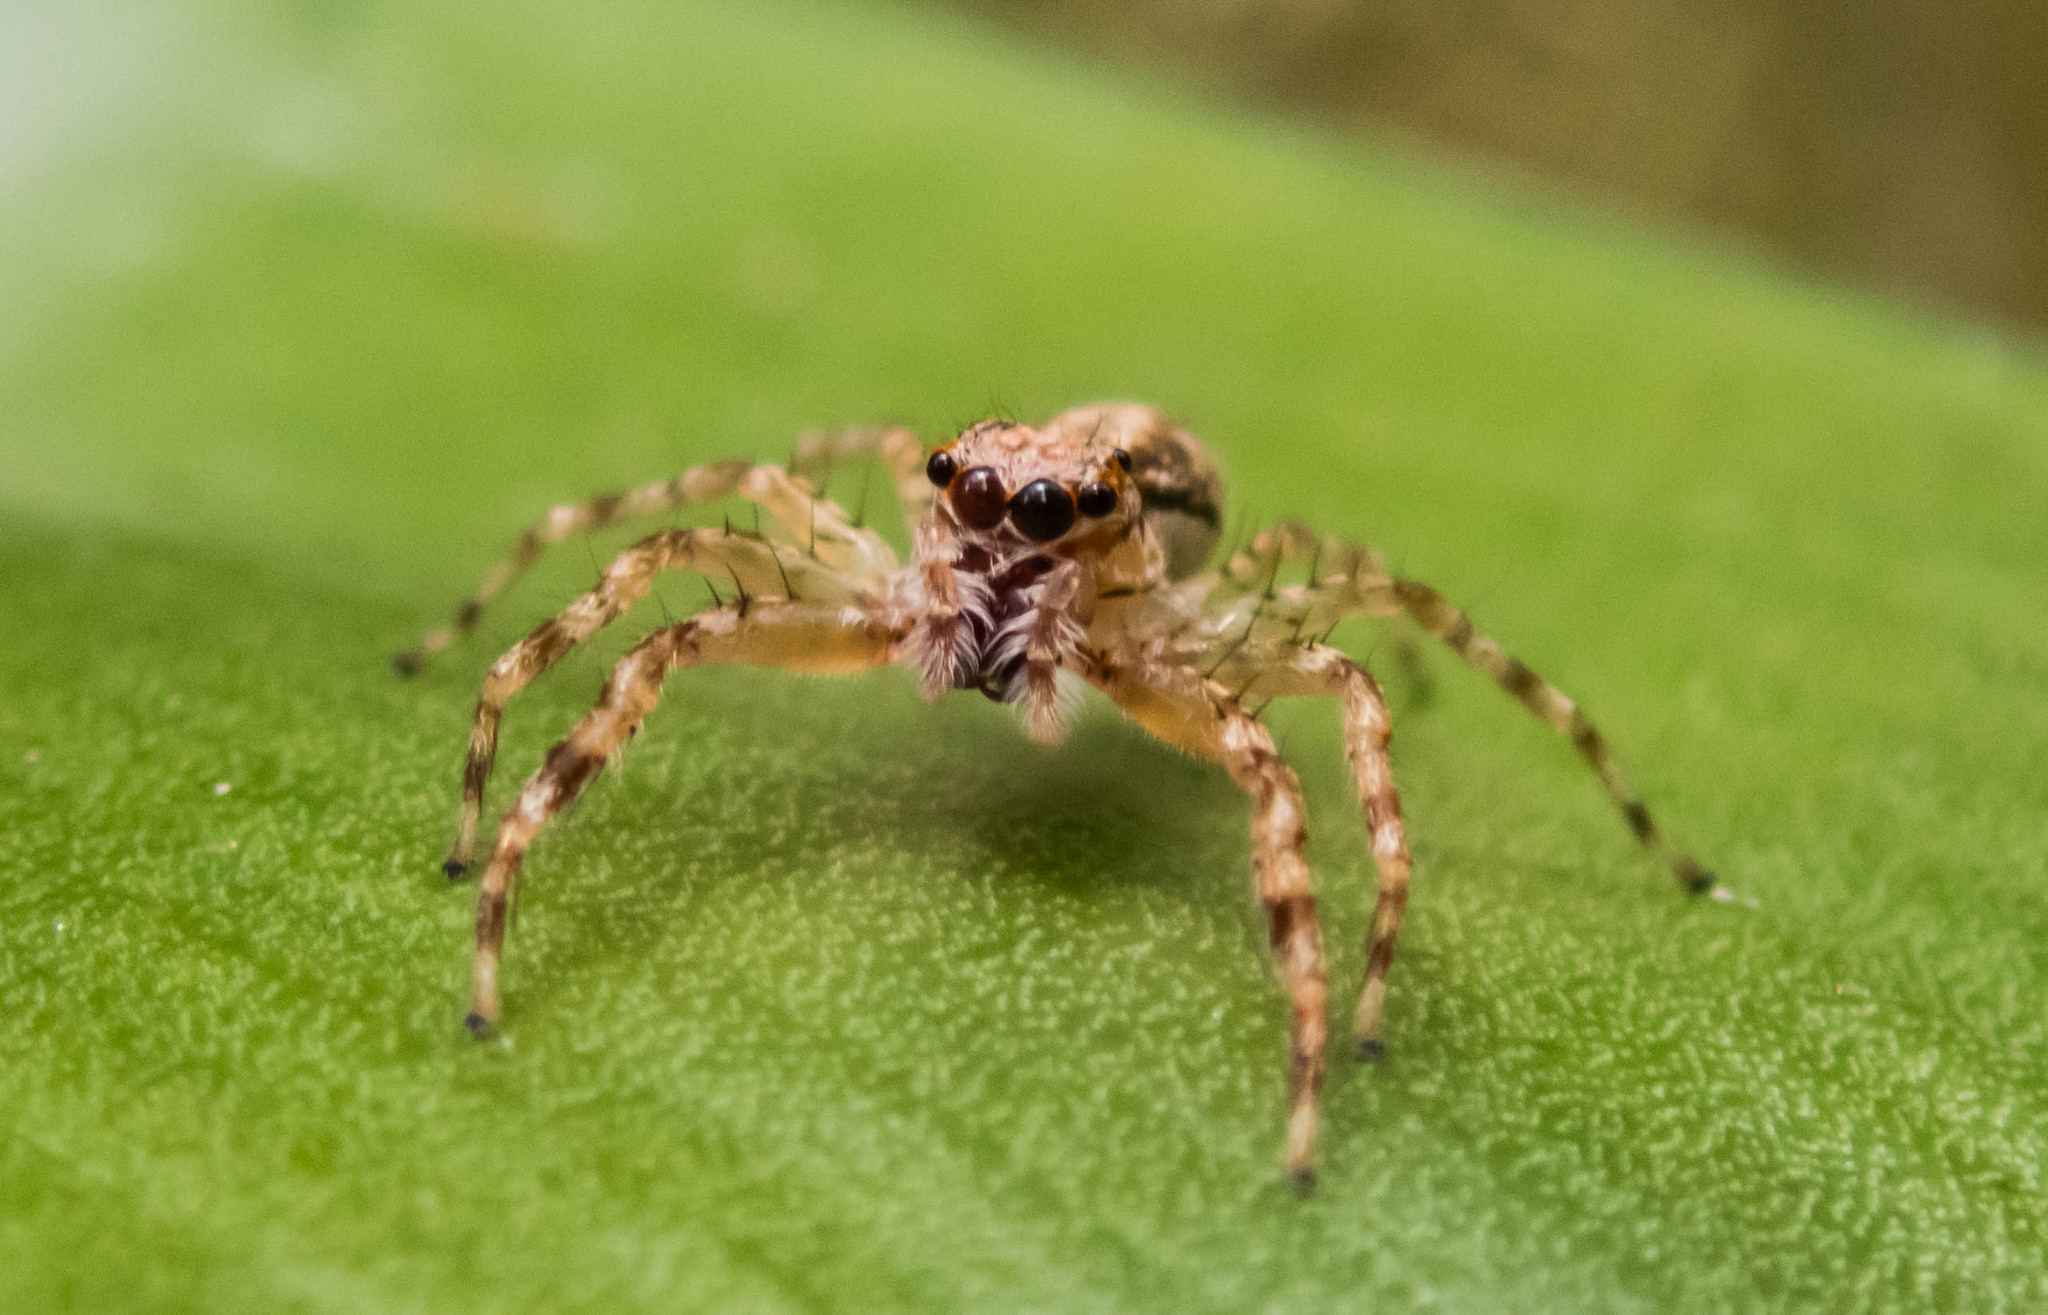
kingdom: Animalia
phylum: Arthropoda
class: Arachnida
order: Araneae
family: Salticidae
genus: Helpis
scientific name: Helpis minitabunda
